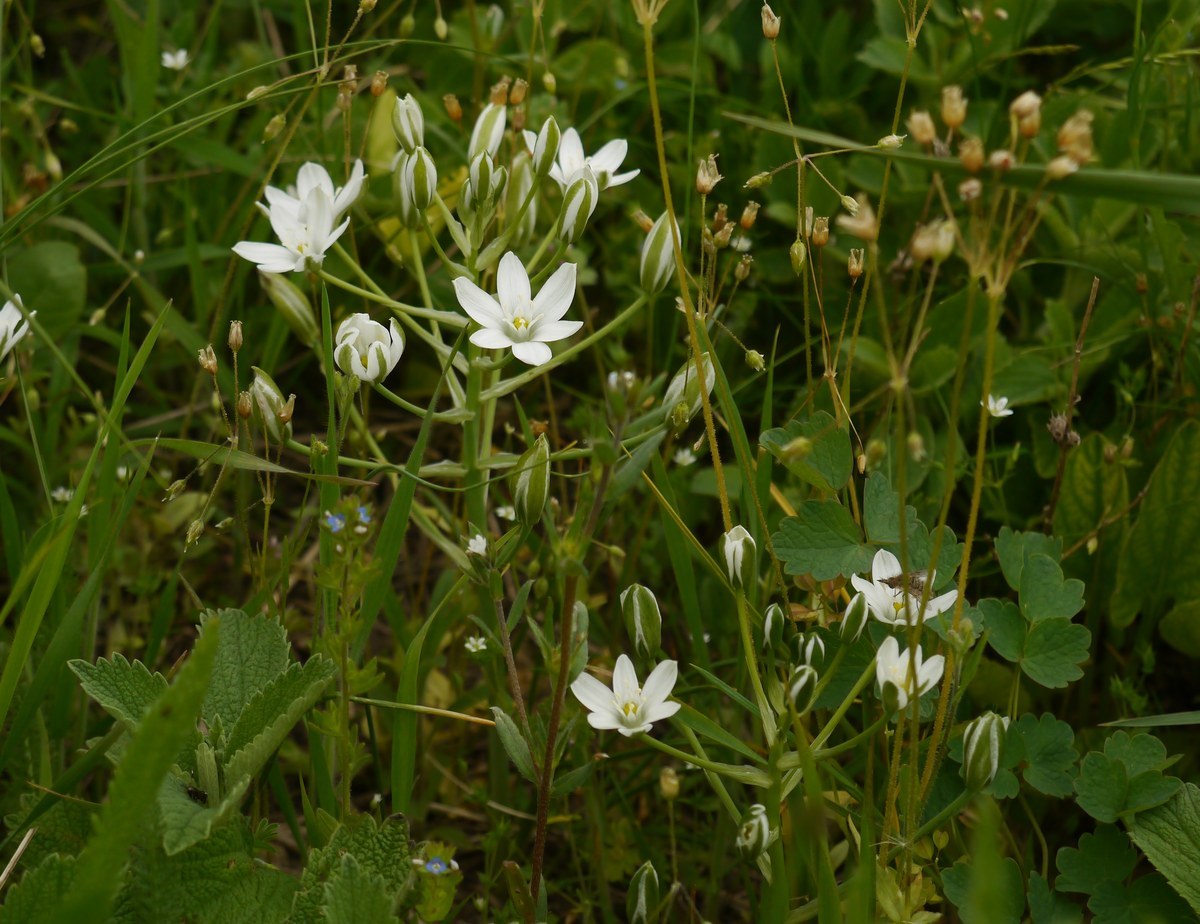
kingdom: Plantae
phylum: Tracheophyta
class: Liliopsida
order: Asparagales
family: Asparagaceae
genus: Ornithogalum
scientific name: Ornithogalum orthophyllum
